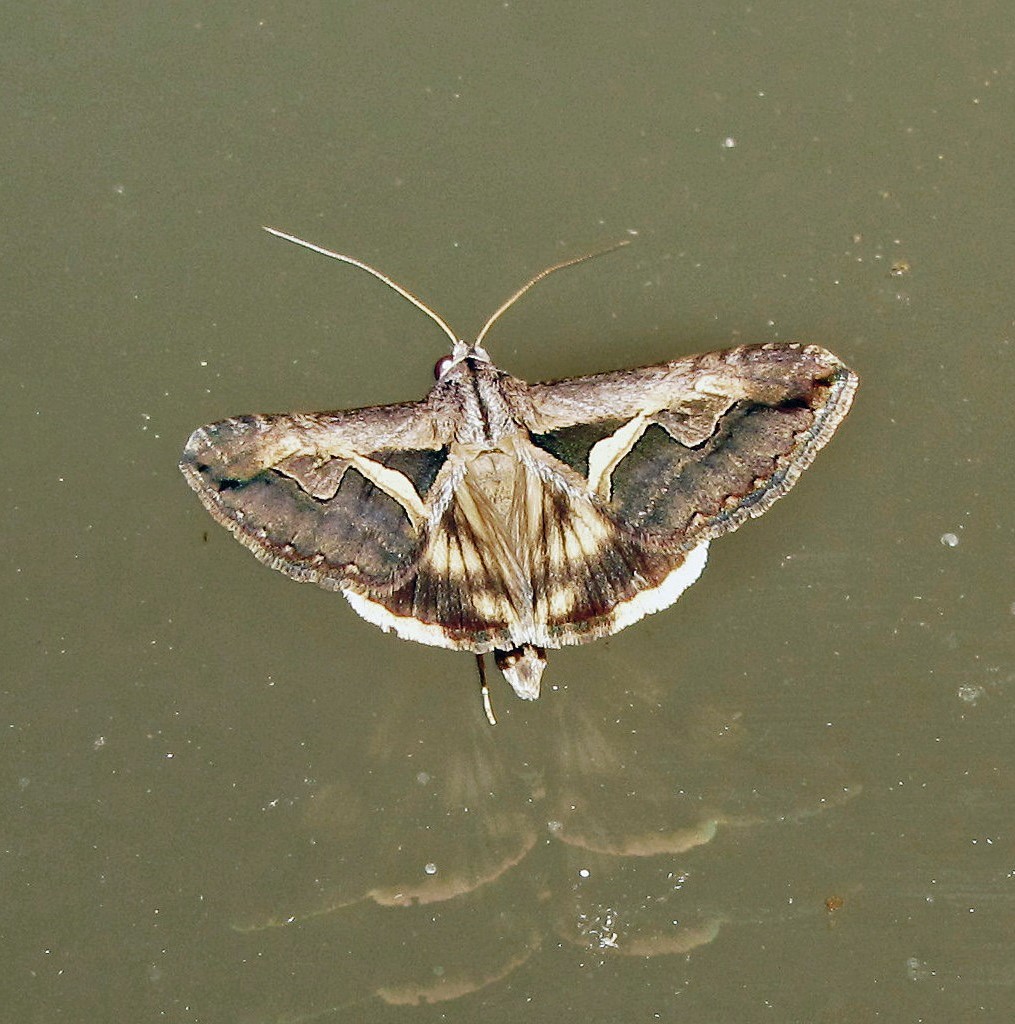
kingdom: Animalia
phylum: Arthropoda
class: Insecta
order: Lepidoptera
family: Erebidae
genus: Melipotis
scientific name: Melipotis cellaris
